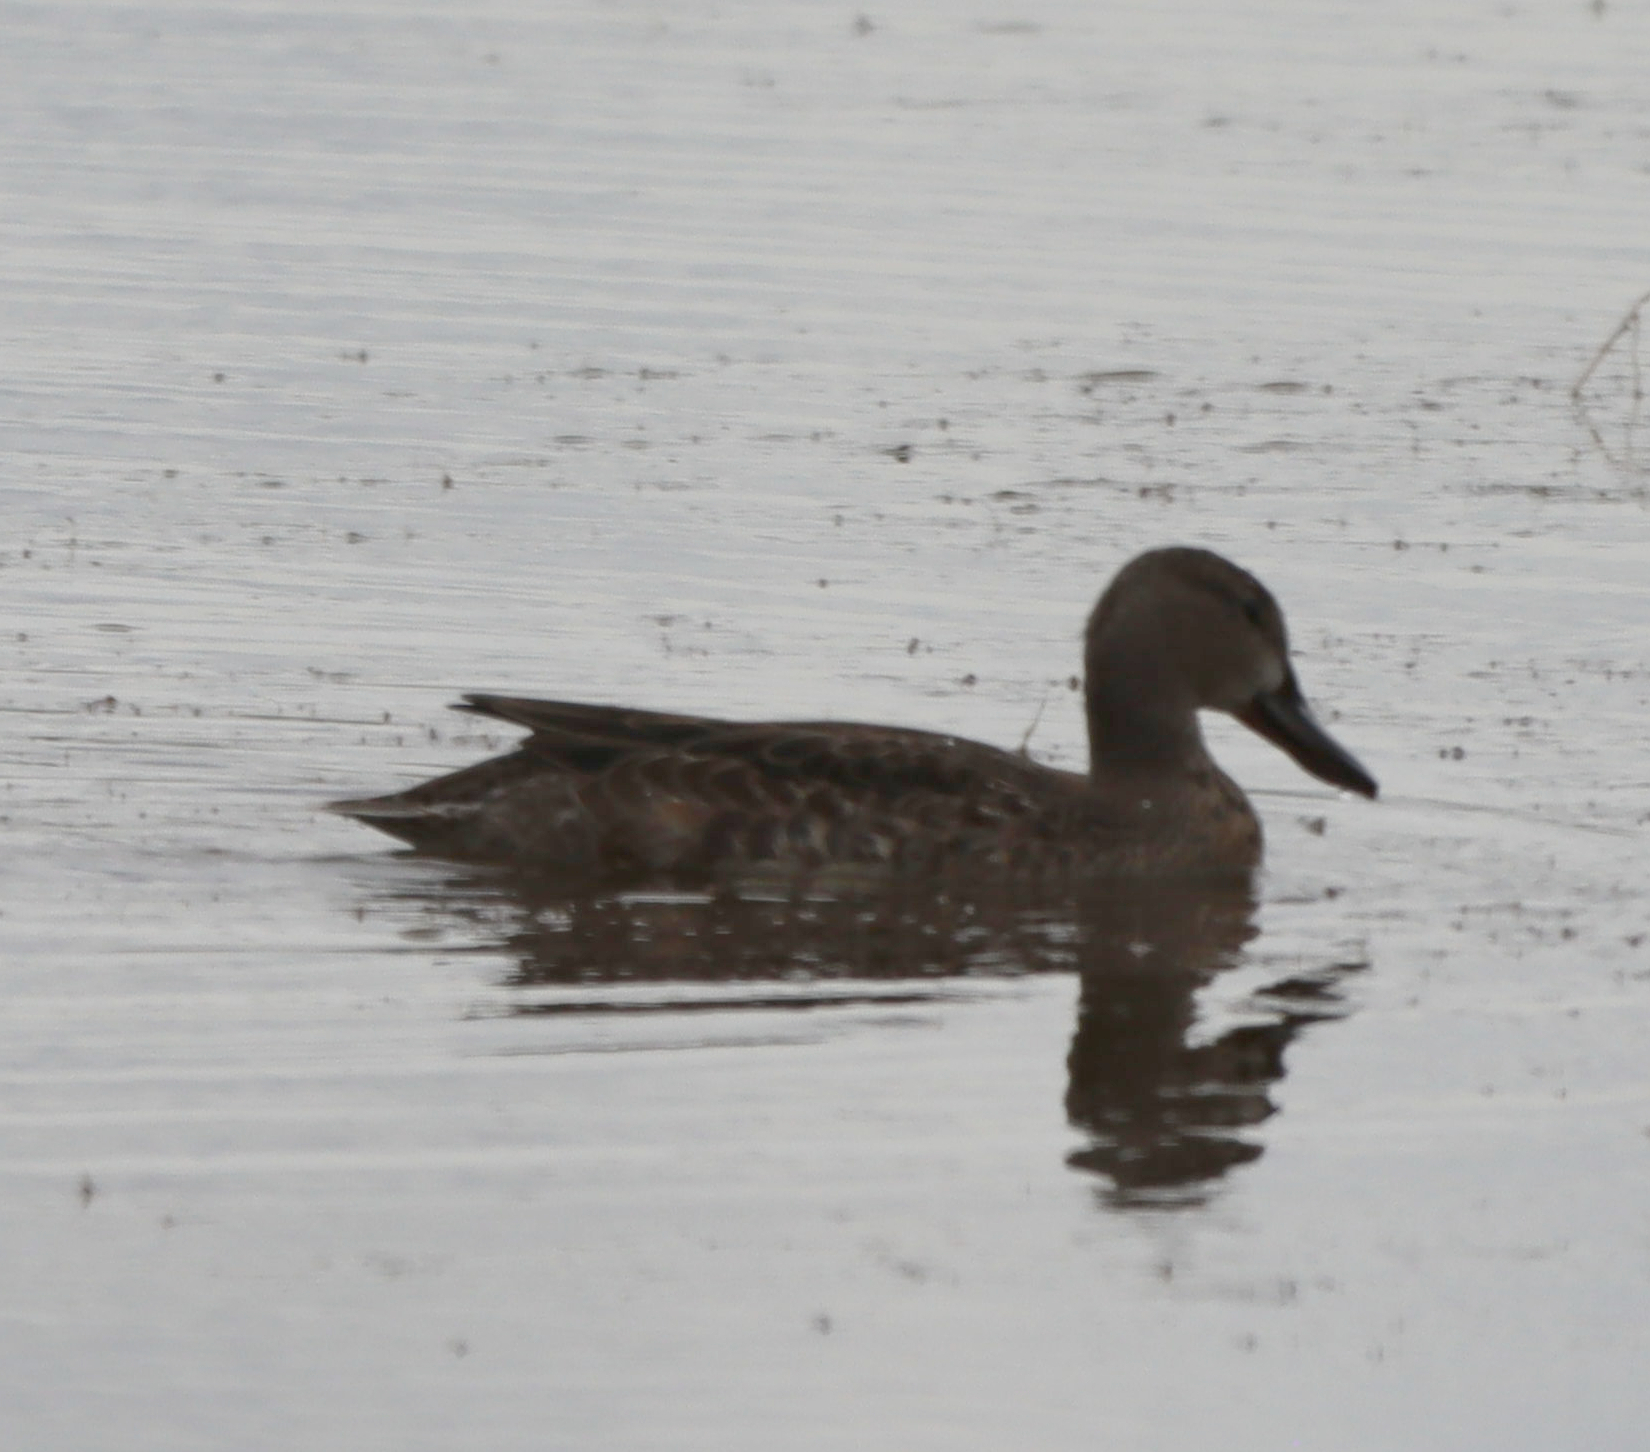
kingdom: Animalia
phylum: Chordata
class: Aves
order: Anseriformes
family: Anatidae
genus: Spatula
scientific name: Spatula discors
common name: Blue-winged teal
